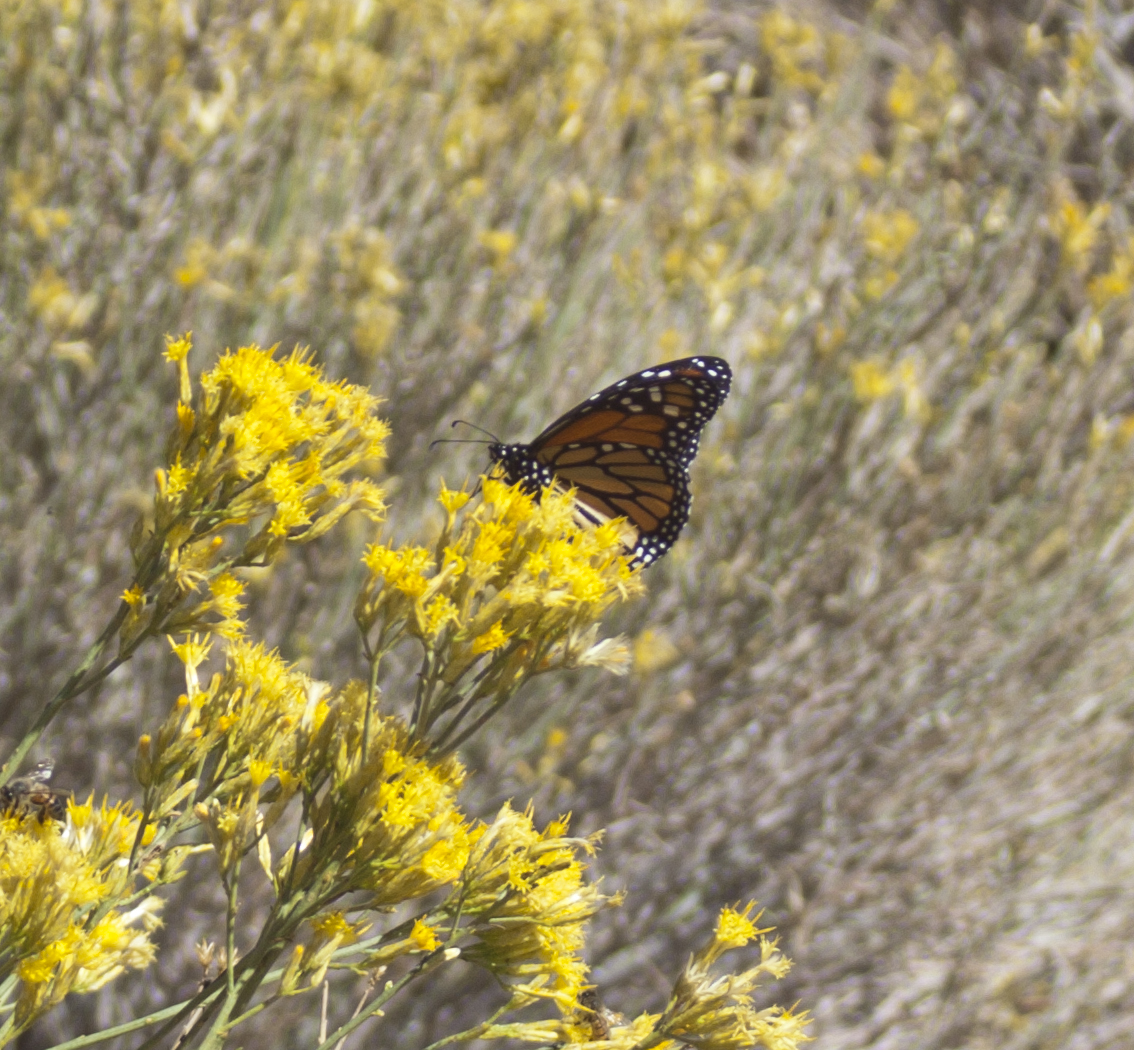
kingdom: Animalia
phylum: Arthropoda
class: Insecta
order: Lepidoptera
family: Nymphalidae
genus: Danaus
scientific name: Danaus plexippus
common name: Monarch
